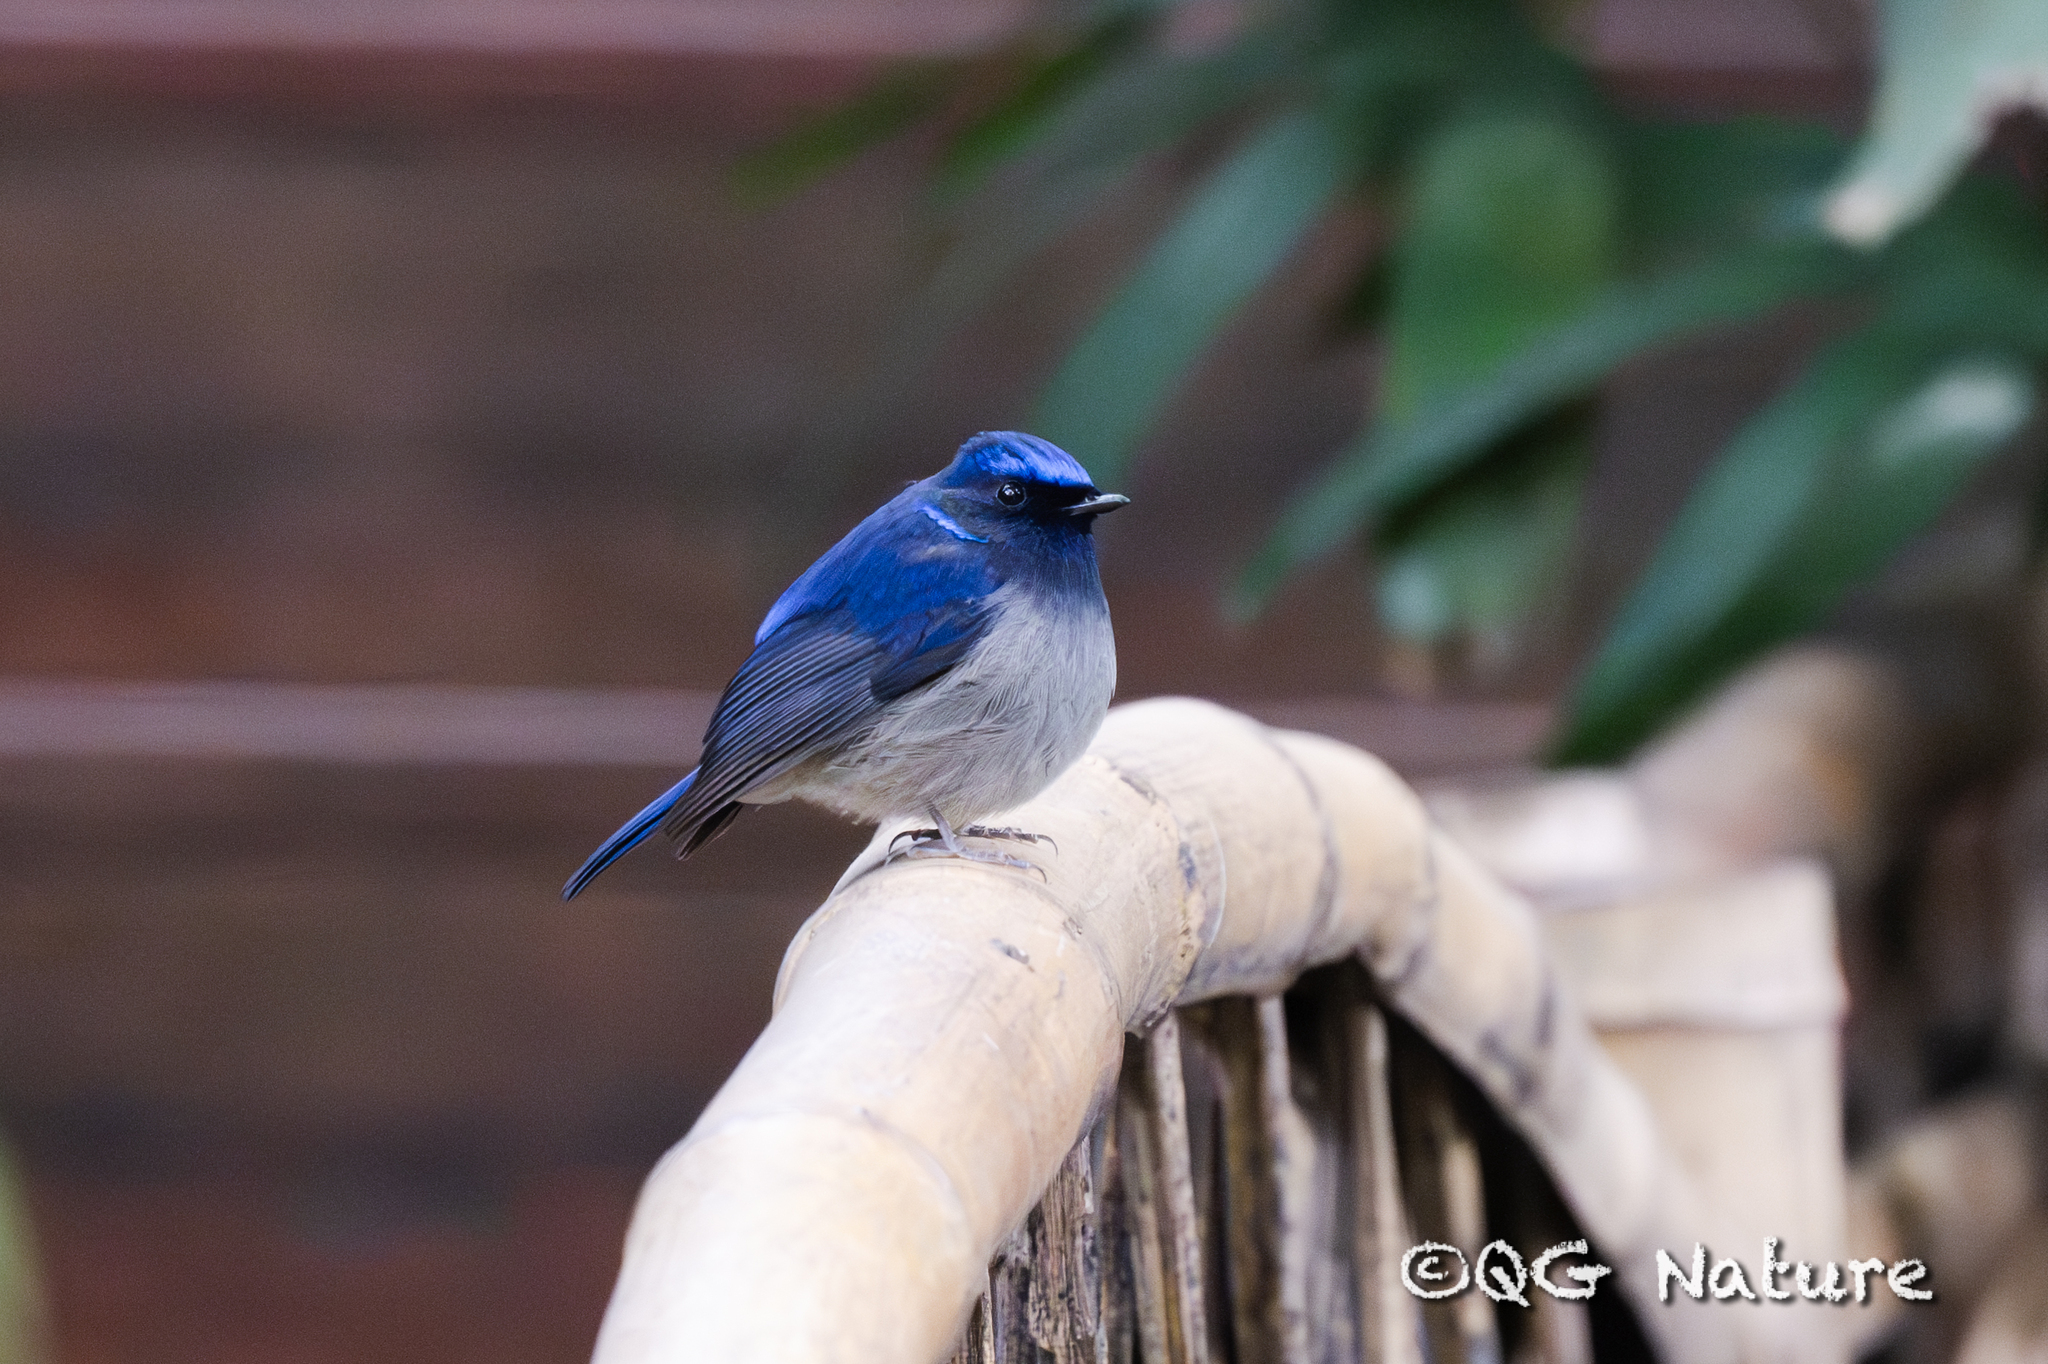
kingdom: Animalia
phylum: Chordata
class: Aves
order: Passeriformes
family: Muscicapidae
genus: Niltava
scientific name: Niltava macgrigoriae
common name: Small niltava
